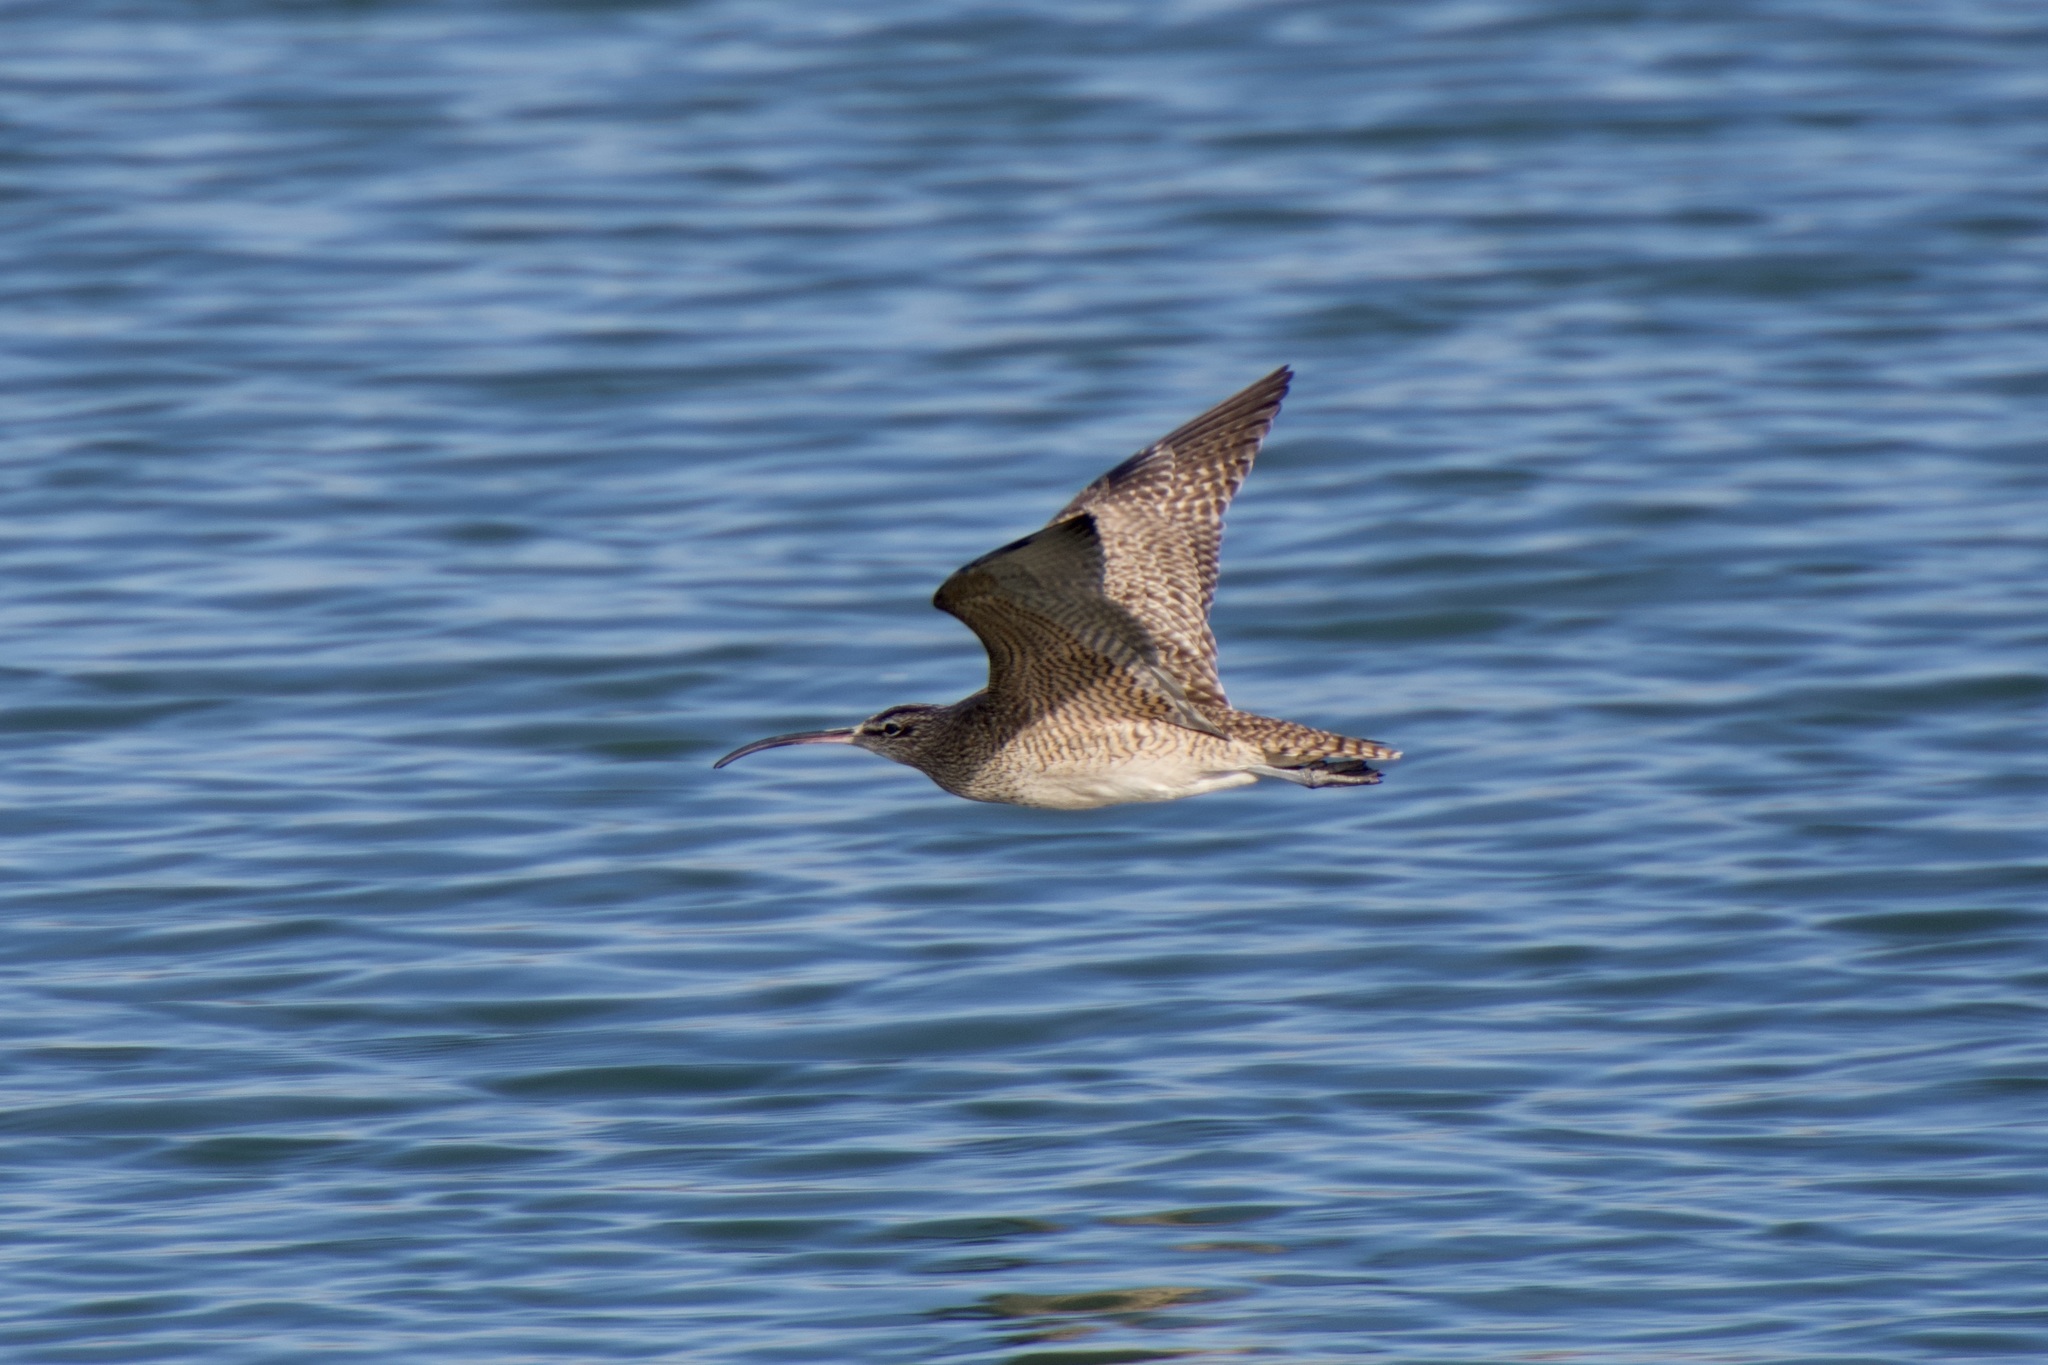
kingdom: Animalia
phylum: Chordata
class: Aves
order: Charadriiformes
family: Scolopacidae
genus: Numenius
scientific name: Numenius phaeopus
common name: Whimbrel
